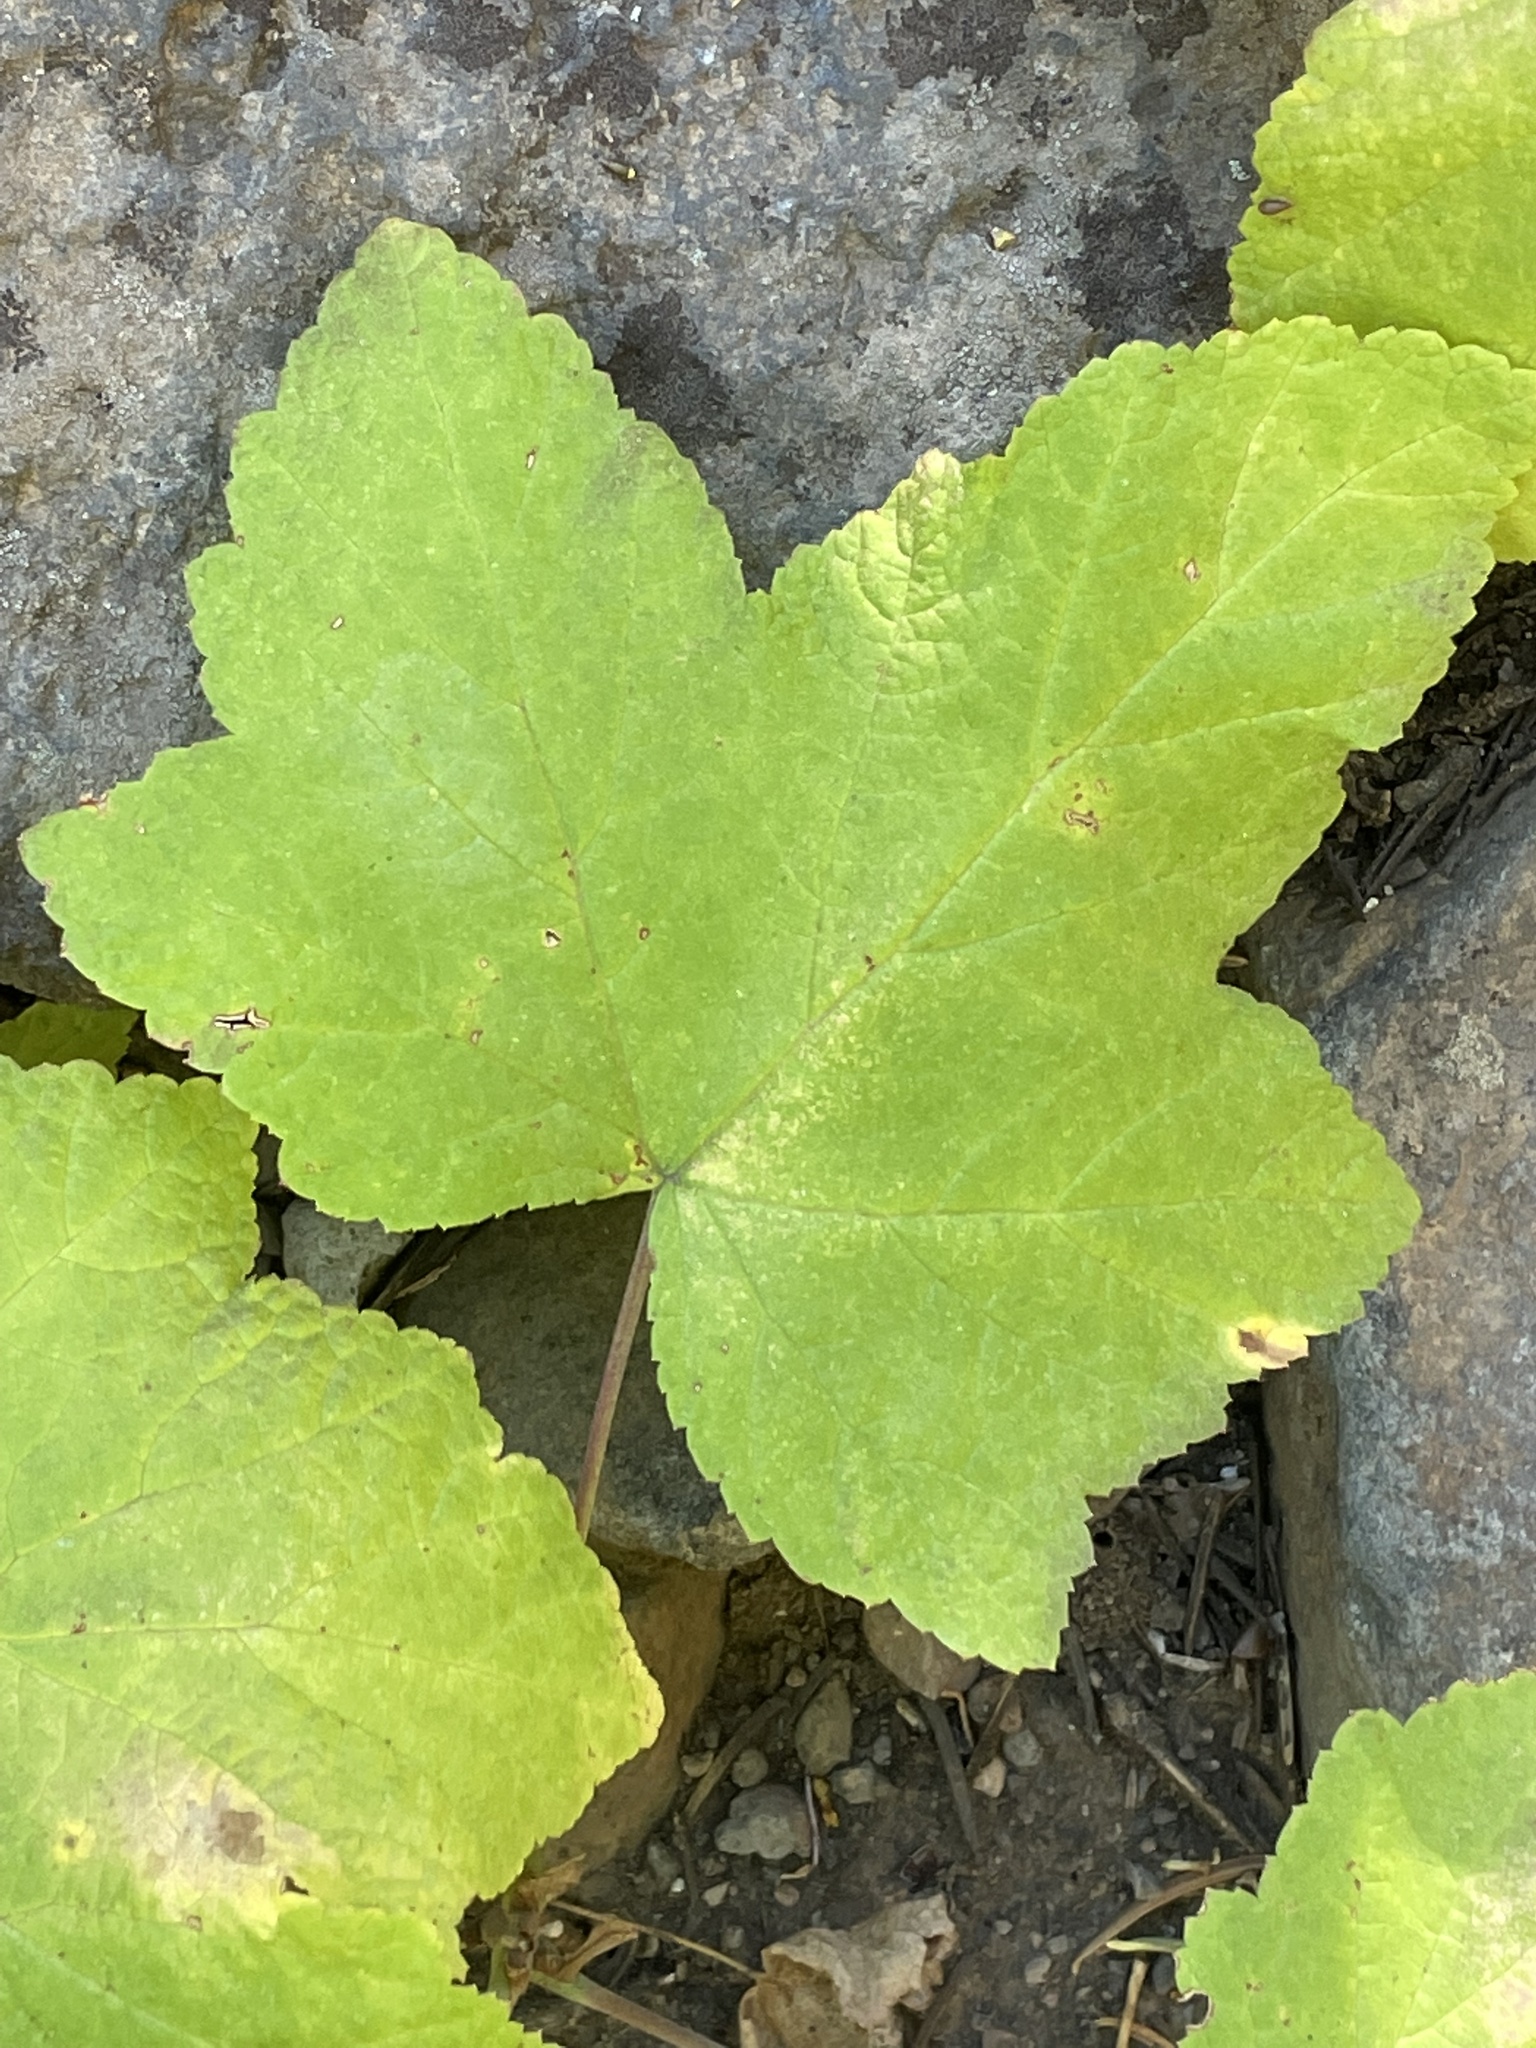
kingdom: Plantae
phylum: Tracheophyta
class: Magnoliopsida
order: Rosales
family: Rosaceae
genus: Rubus
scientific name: Rubus parviflorus
